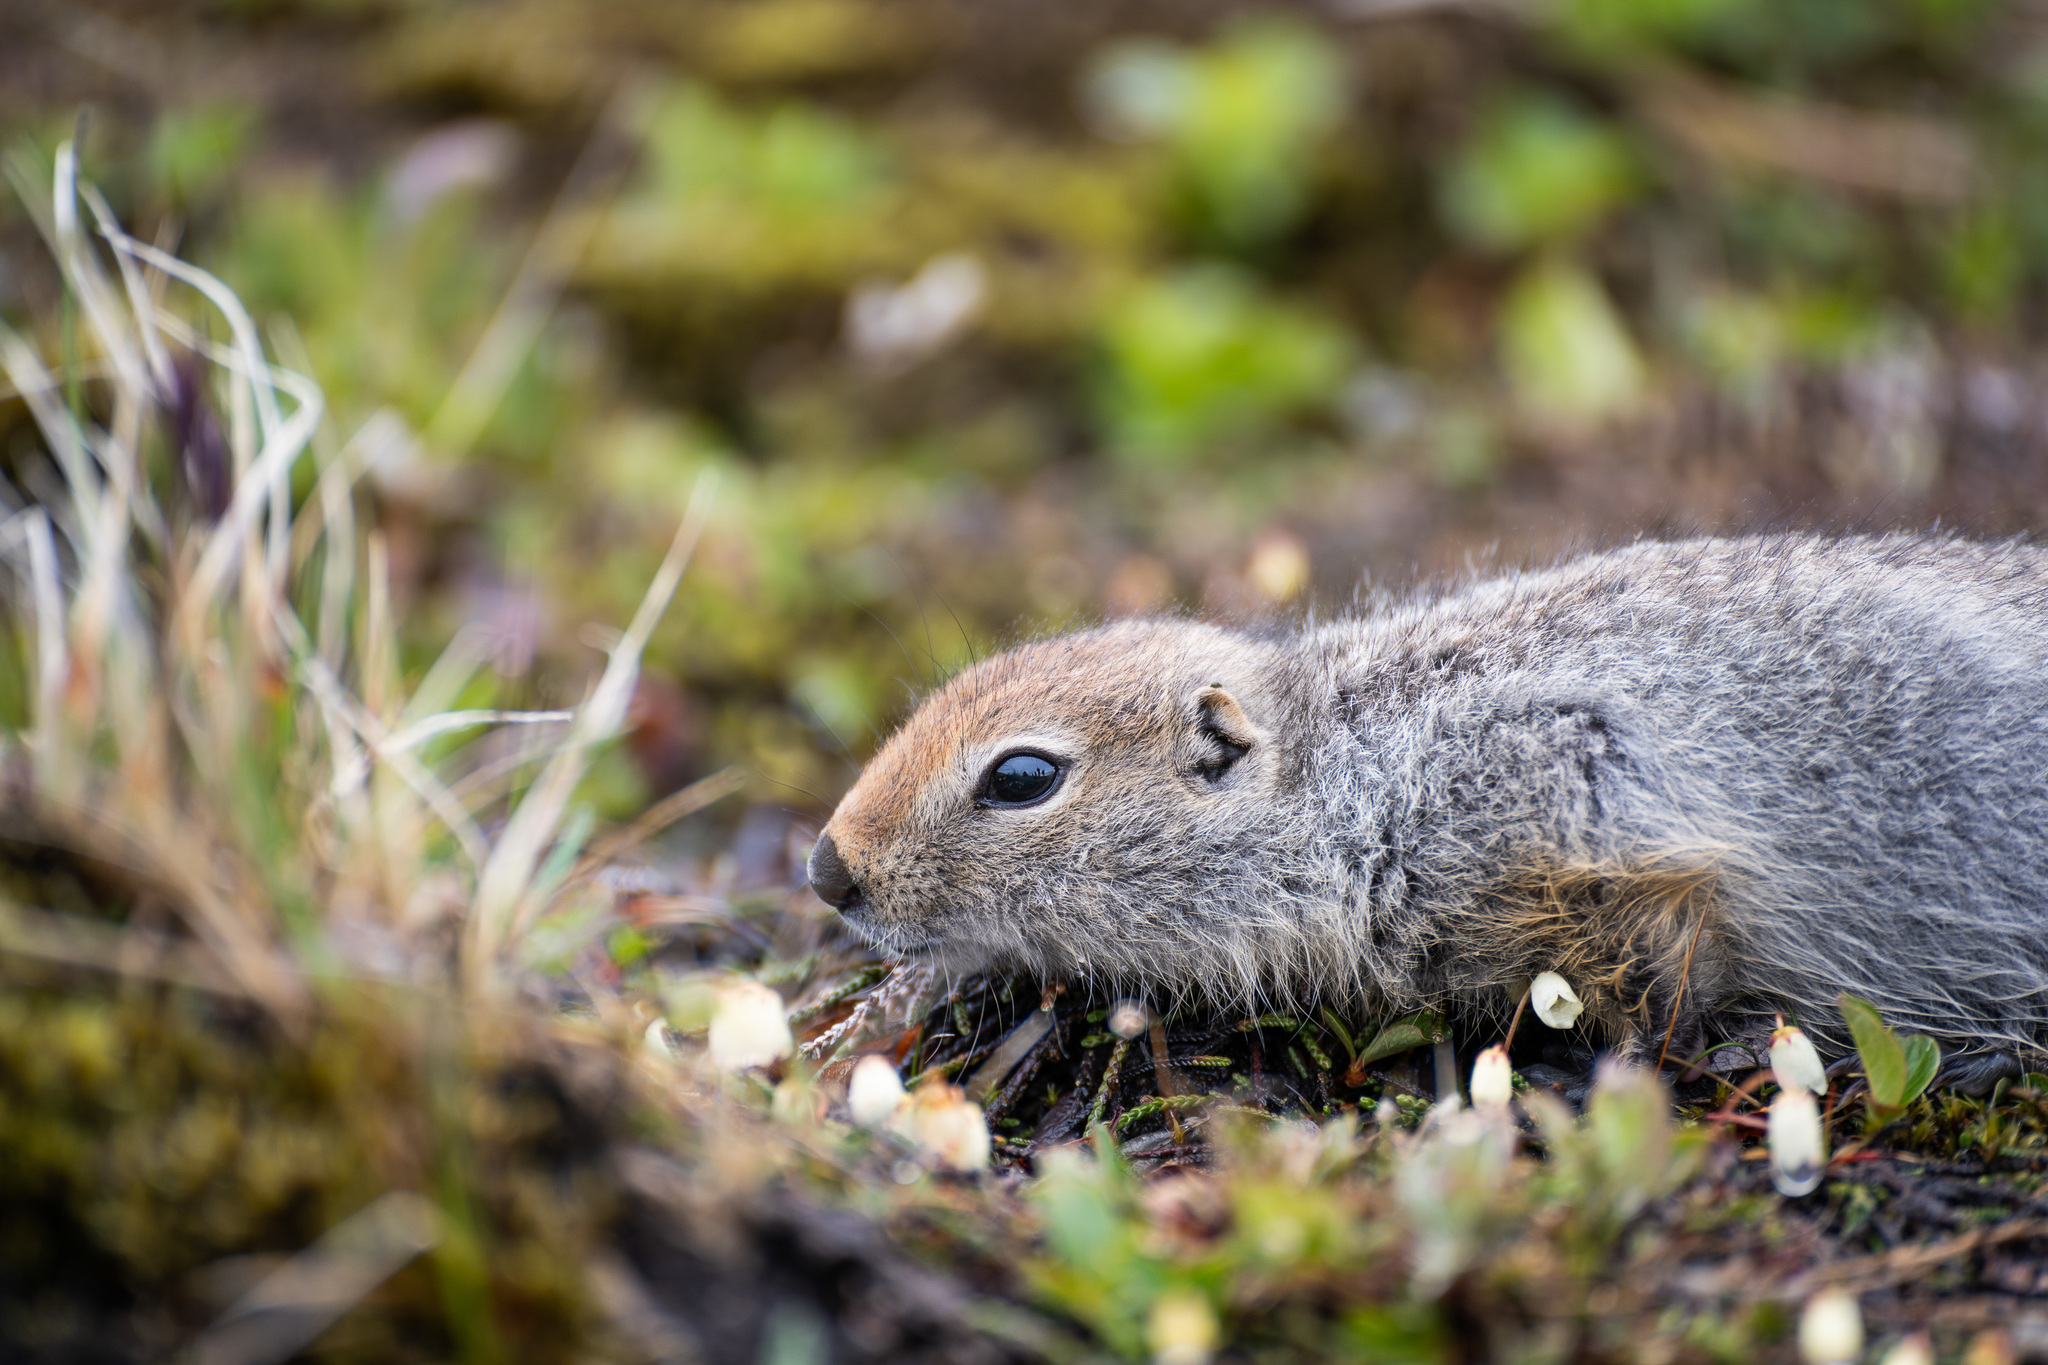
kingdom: Animalia
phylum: Chordata
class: Mammalia
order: Rodentia
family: Sciuridae
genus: Urocitellus
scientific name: Urocitellus parryii
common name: Arctic ground squirrel
